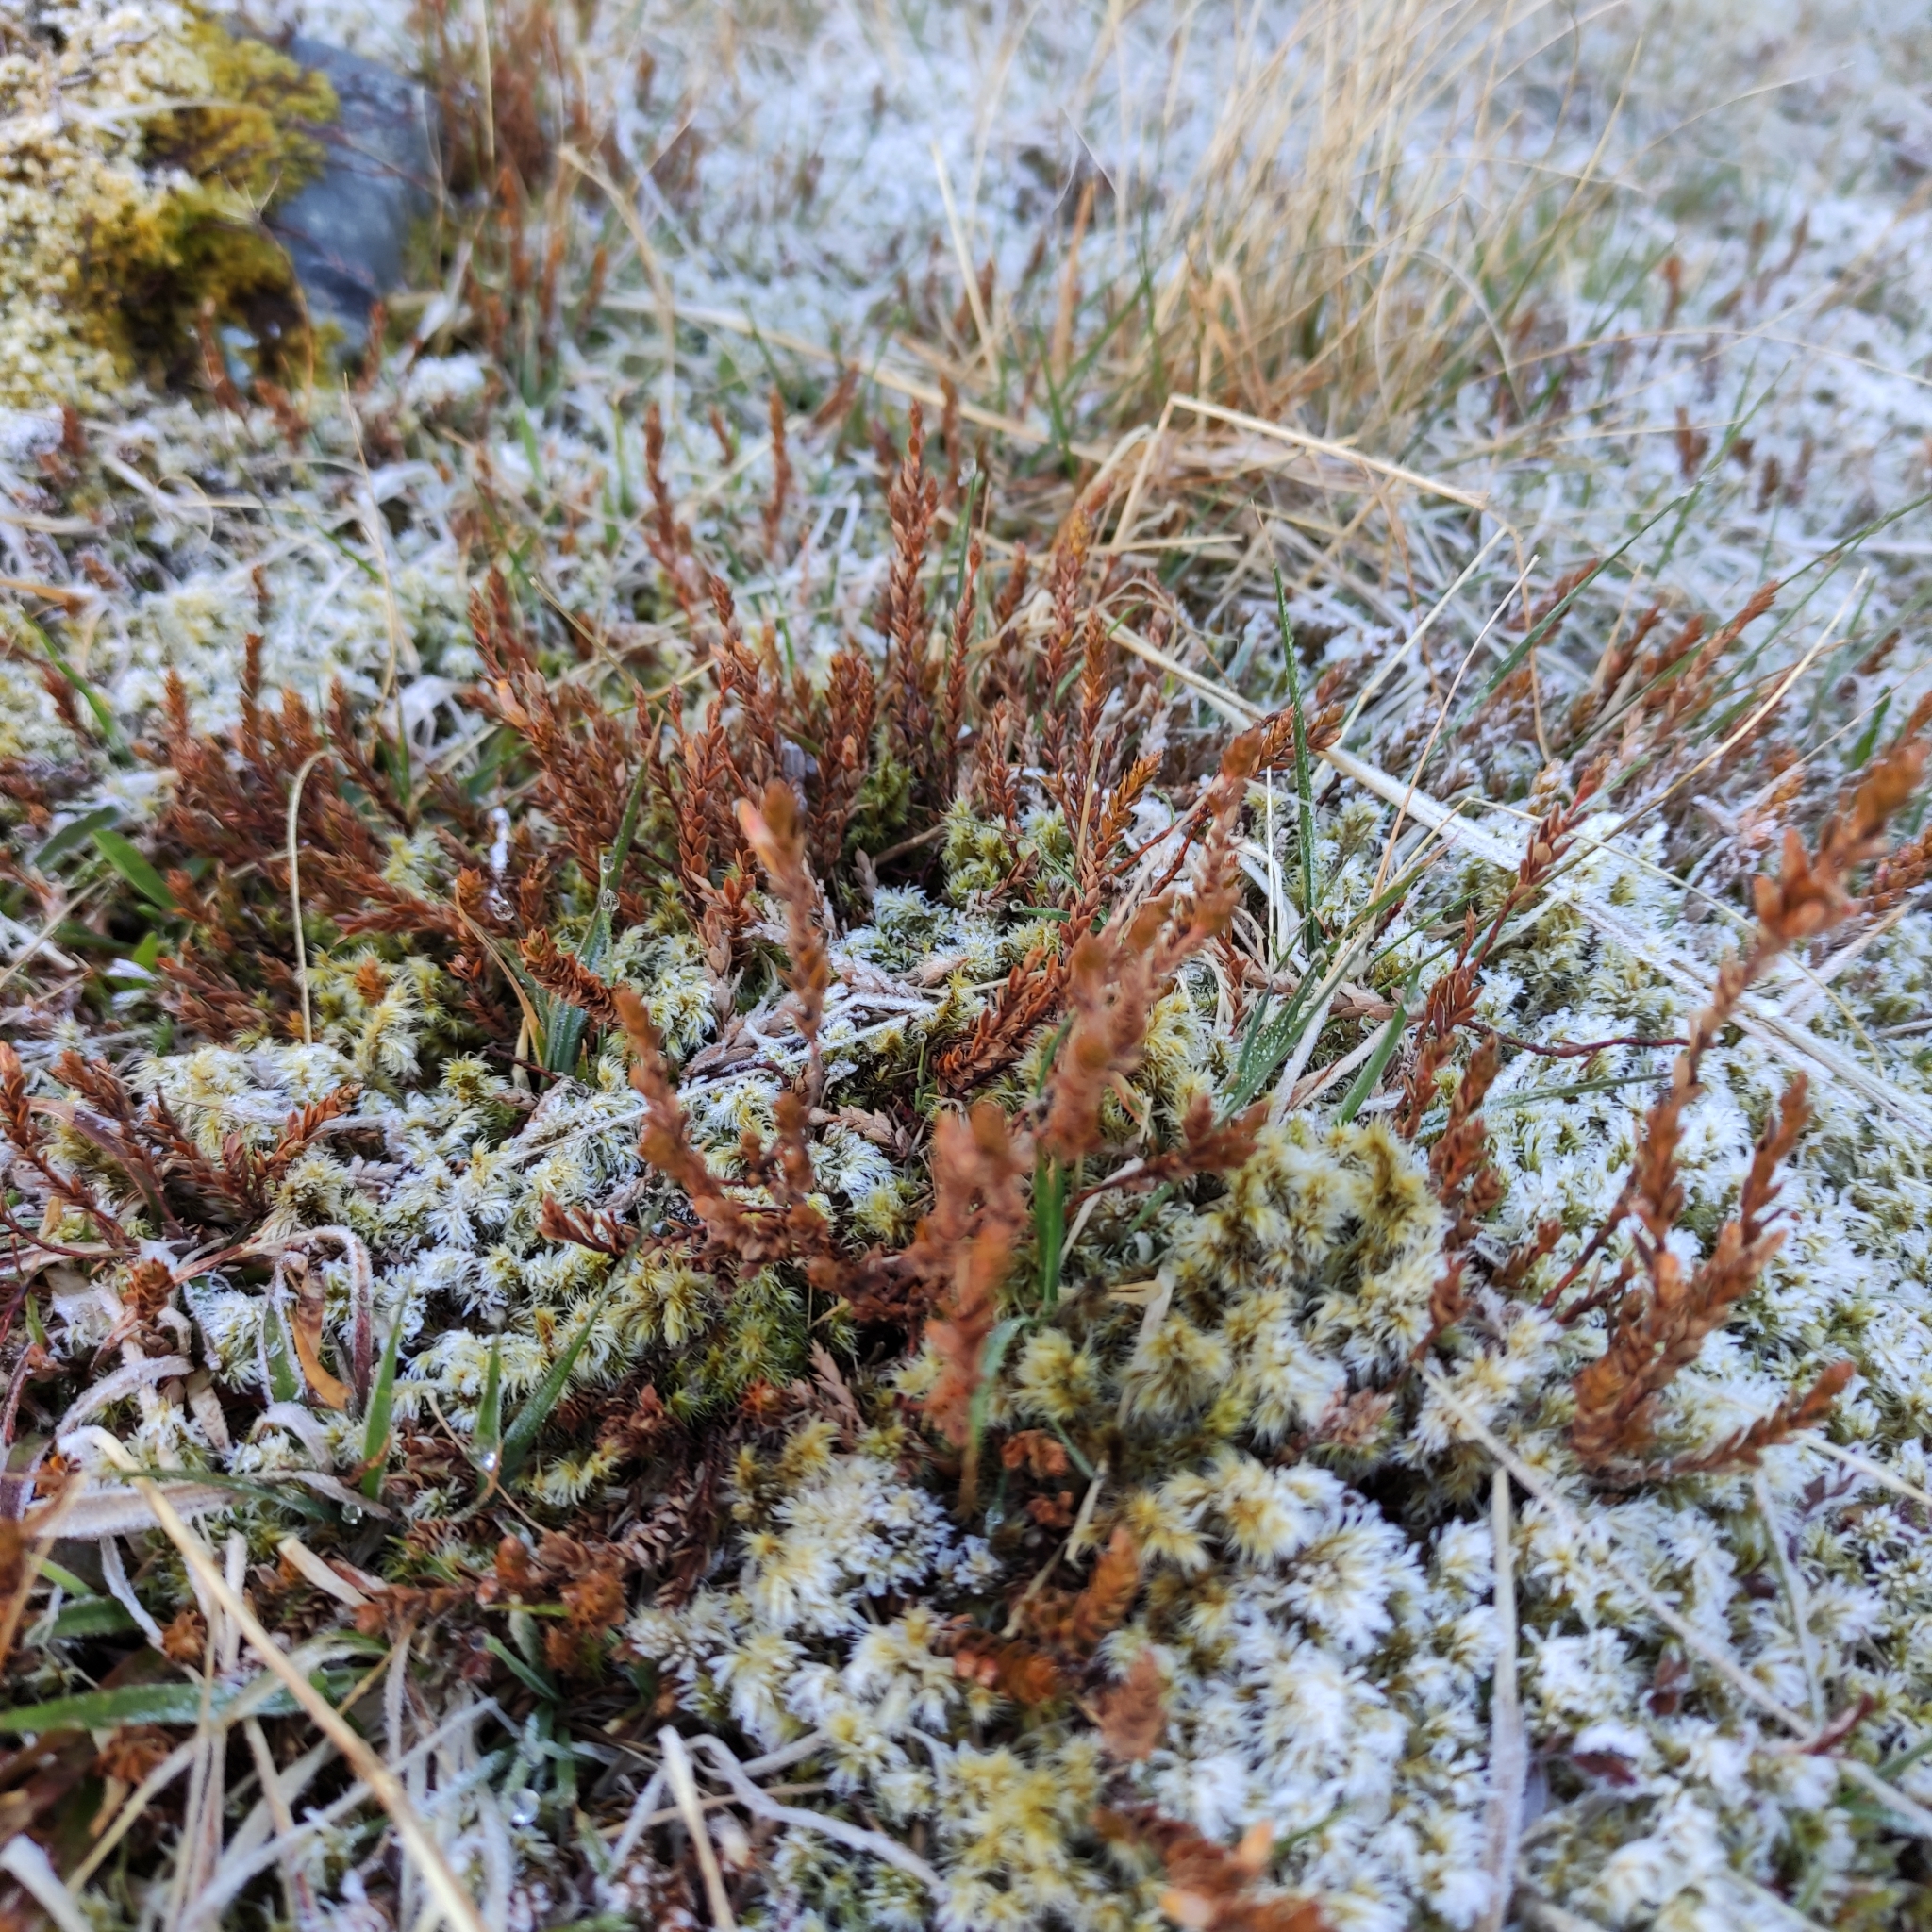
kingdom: Plantae
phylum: Tracheophyta
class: Magnoliopsida
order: Ericales
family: Ericaceae
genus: Styphelia
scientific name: Styphelia nesophila
